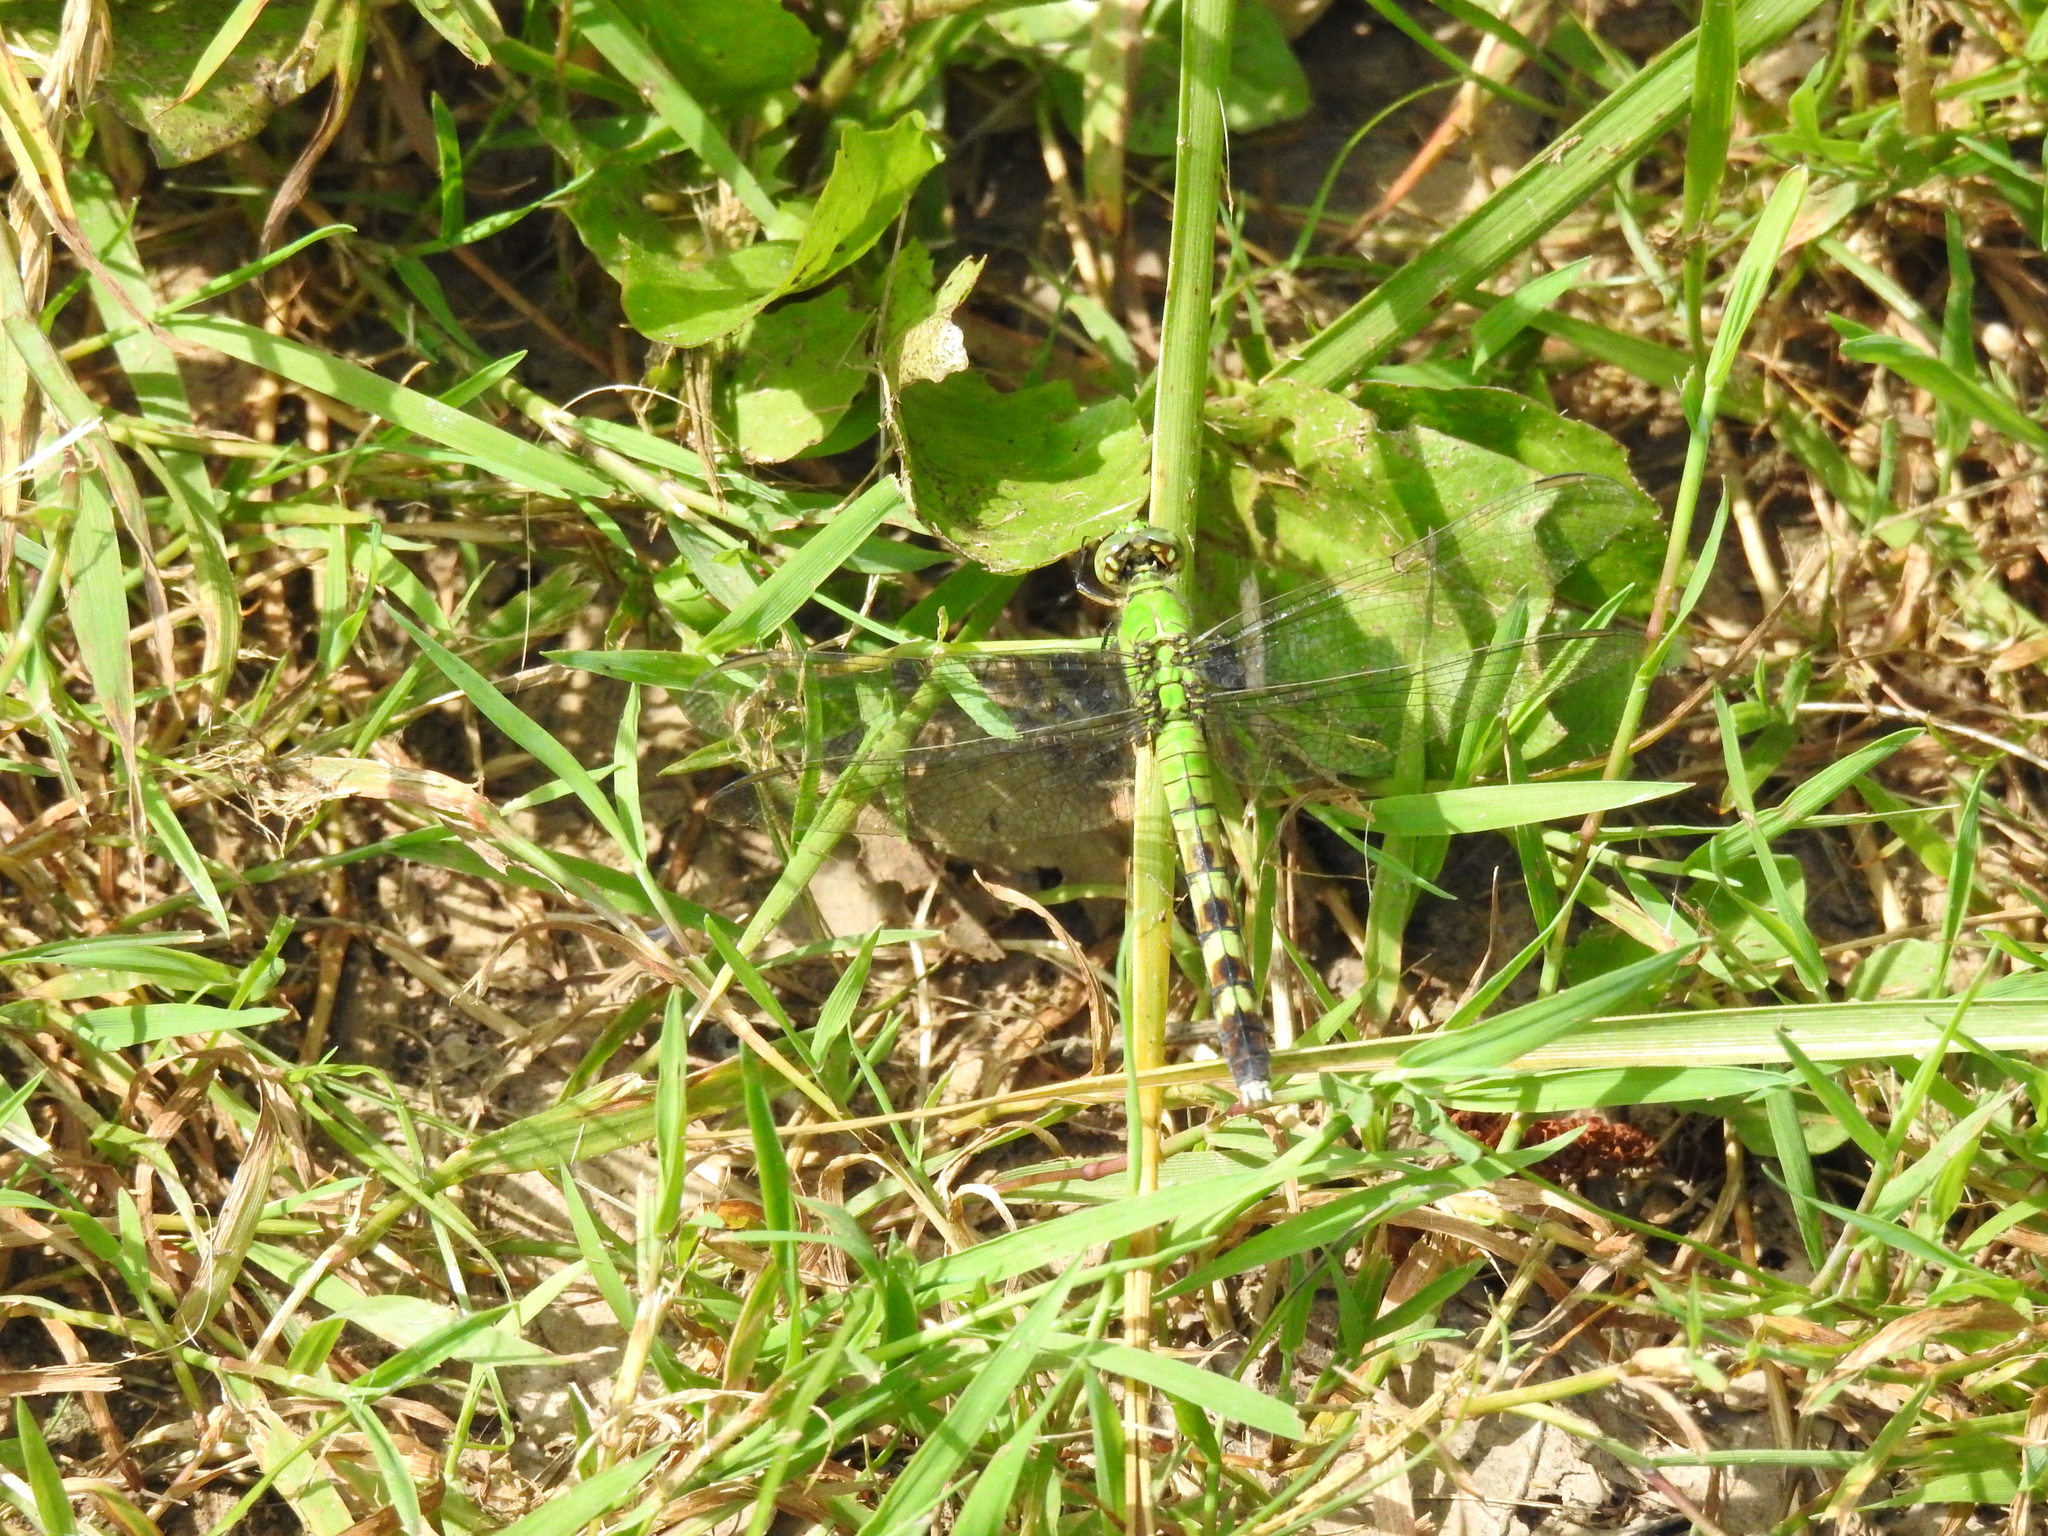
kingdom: Animalia
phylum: Arthropoda
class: Insecta
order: Odonata
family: Libellulidae
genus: Erythemis
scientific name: Erythemis simplicicollis
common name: Eastern pondhawk
